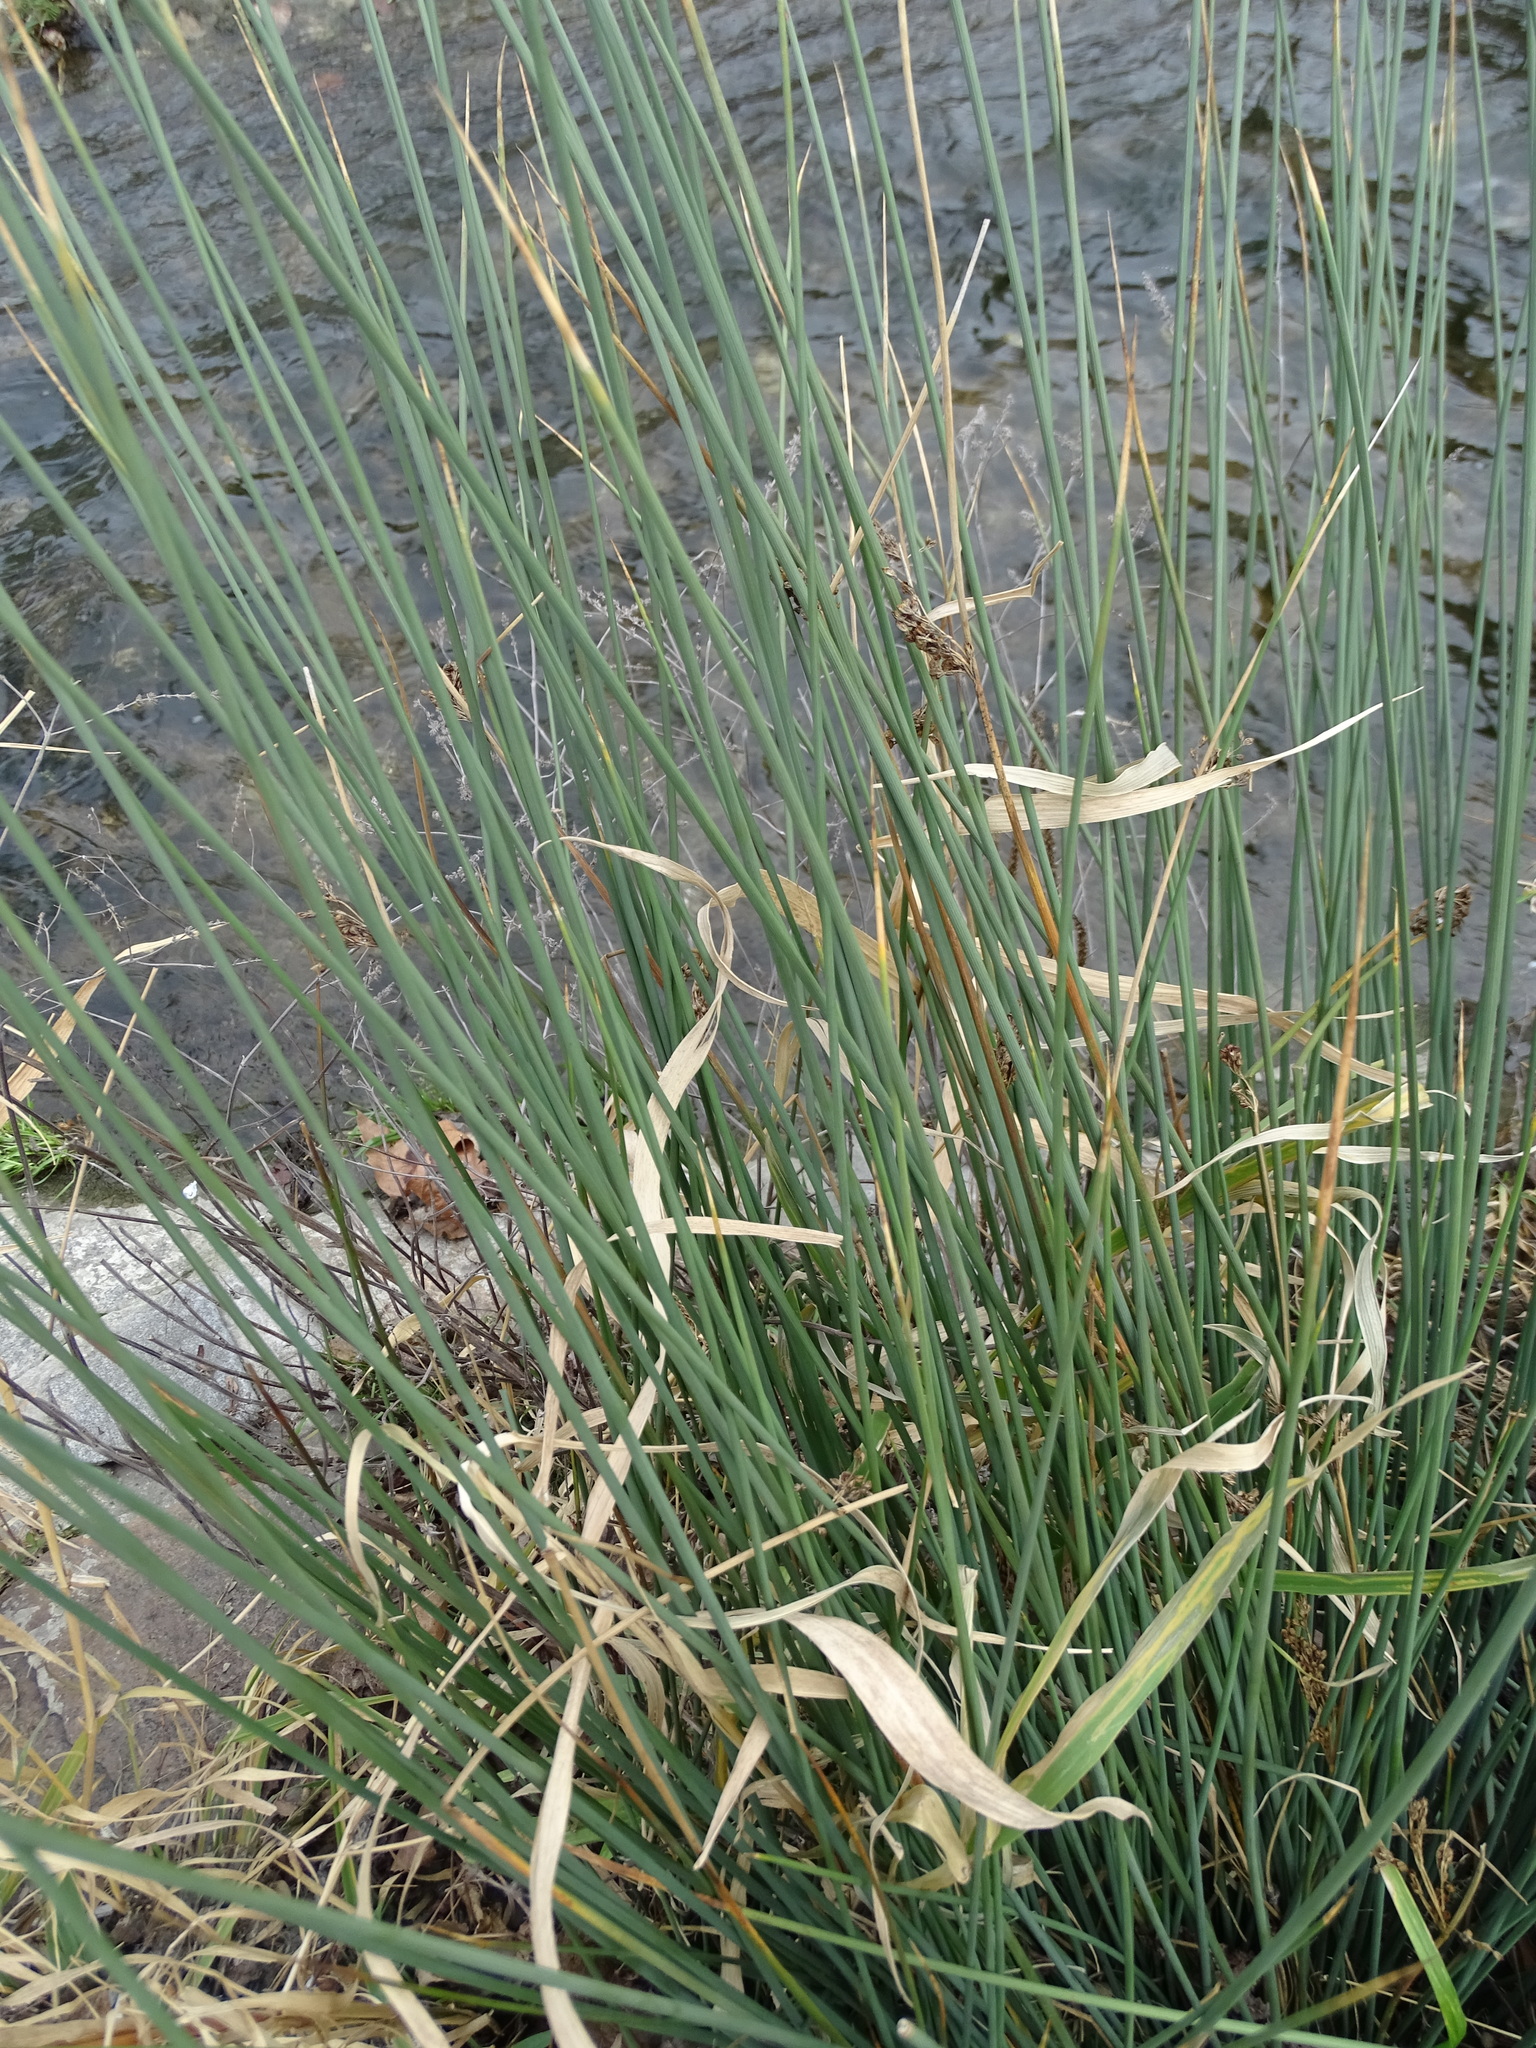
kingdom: Plantae
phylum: Tracheophyta
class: Liliopsida
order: Poales
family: Juncaceae
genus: Juncus
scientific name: Juncus inflexus
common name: Hard rush
